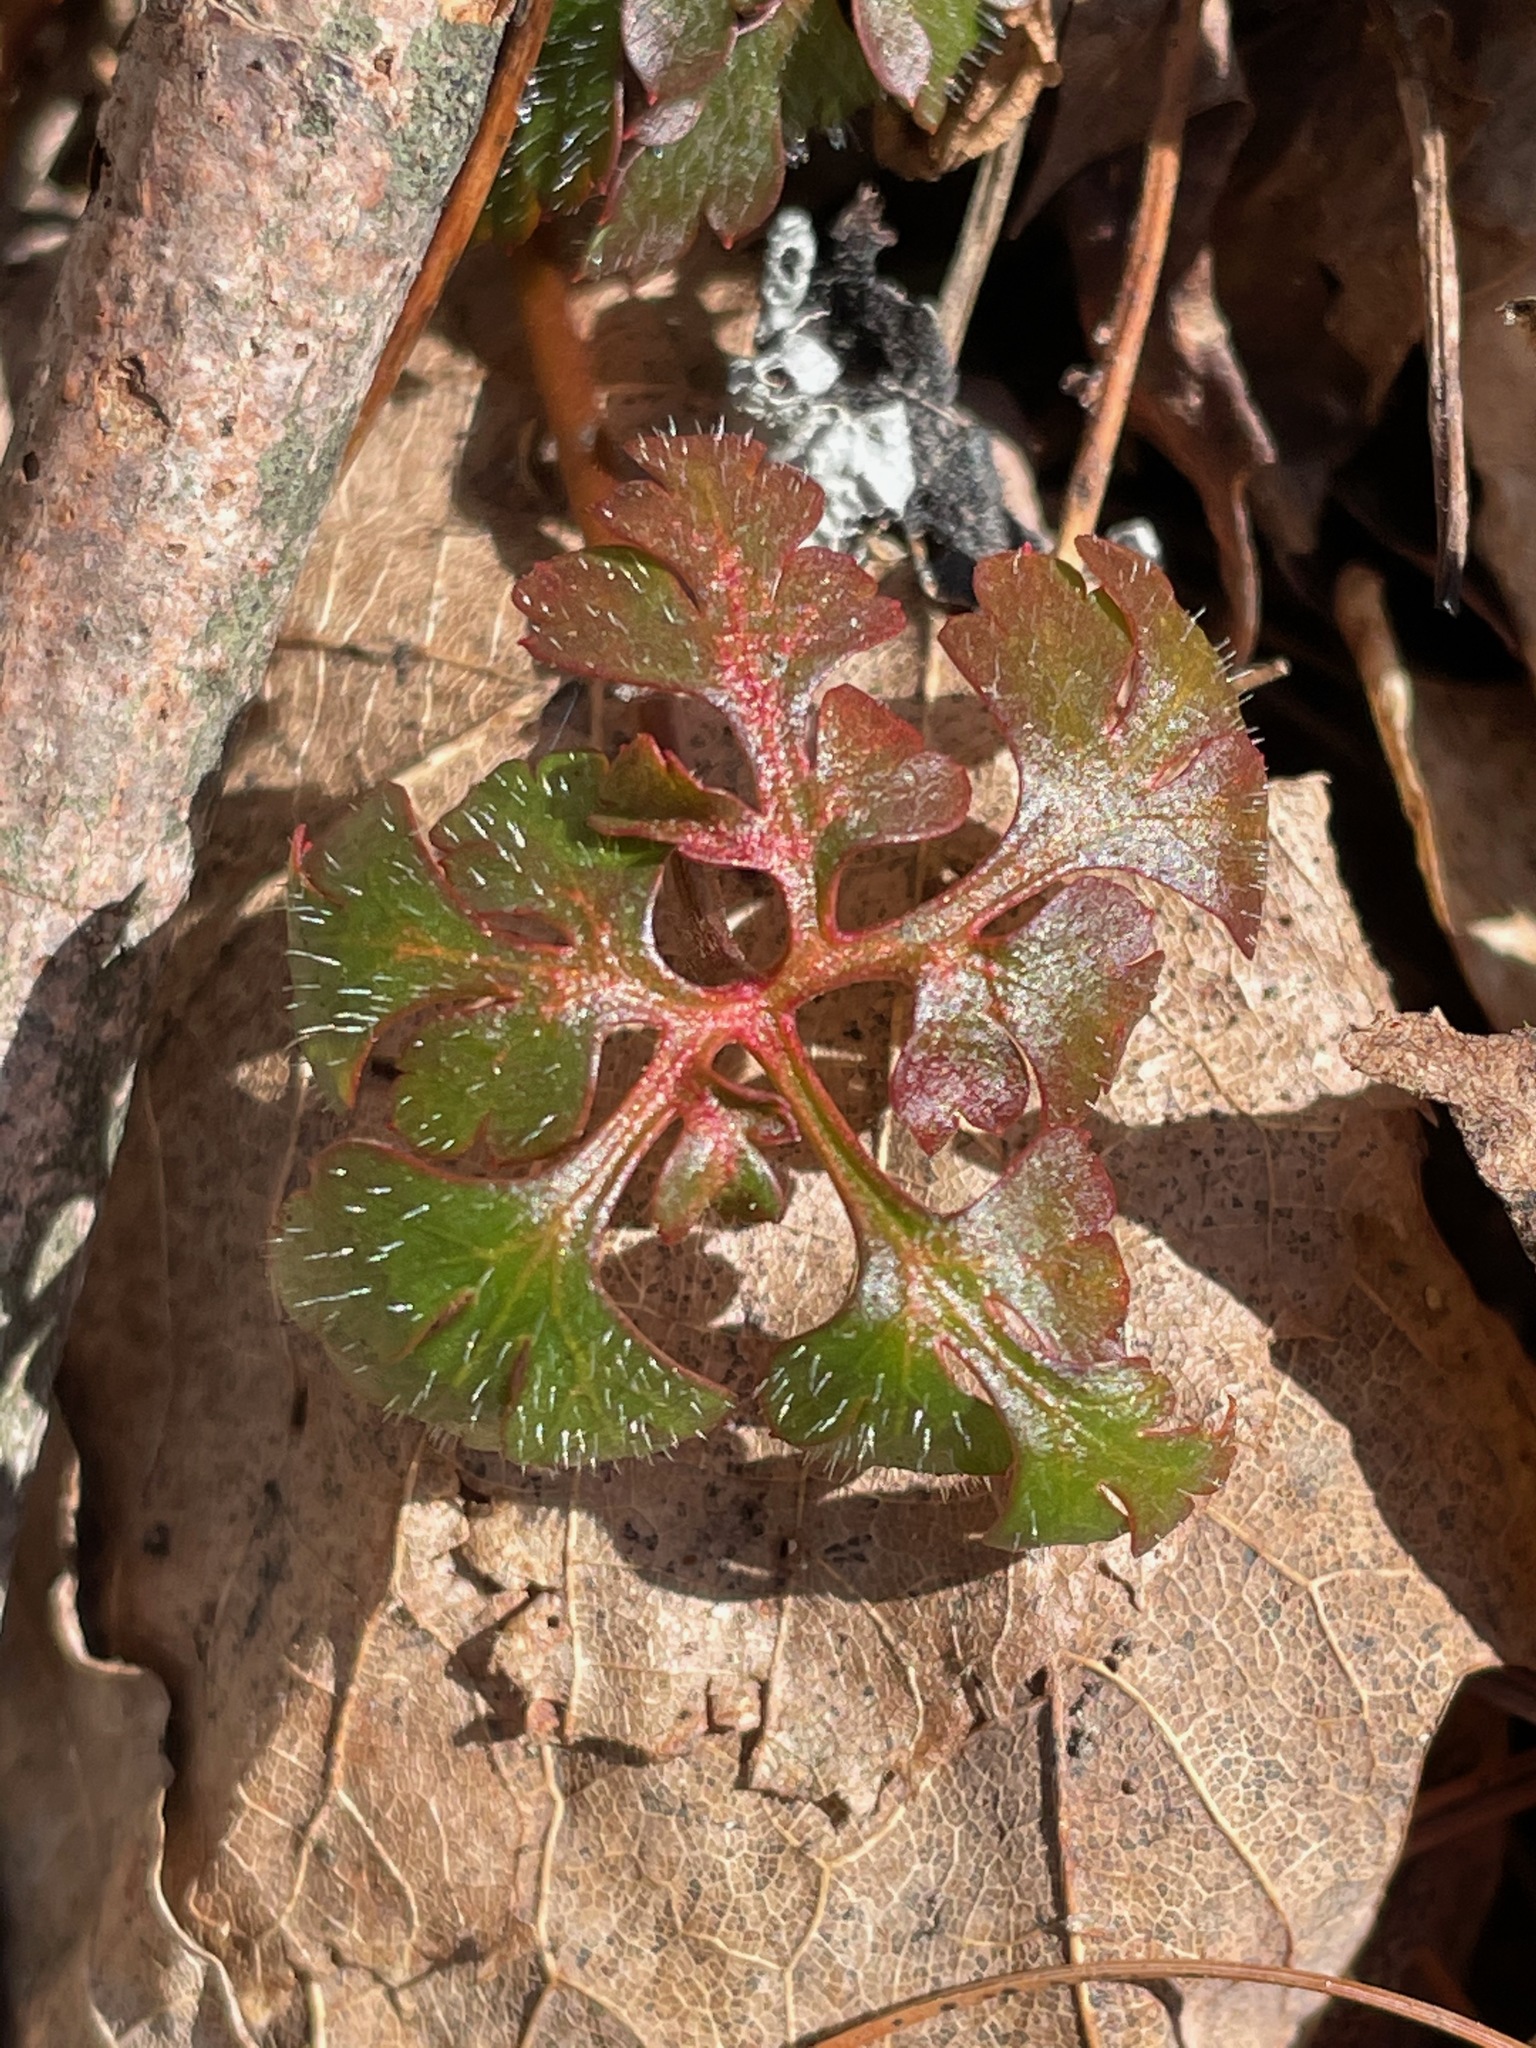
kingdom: Plantae
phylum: Tracheophyta
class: Magnoliopsida
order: Geraniales
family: Geraniaceae
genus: Geranium
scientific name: Geranium robertianum
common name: Herb-robert
